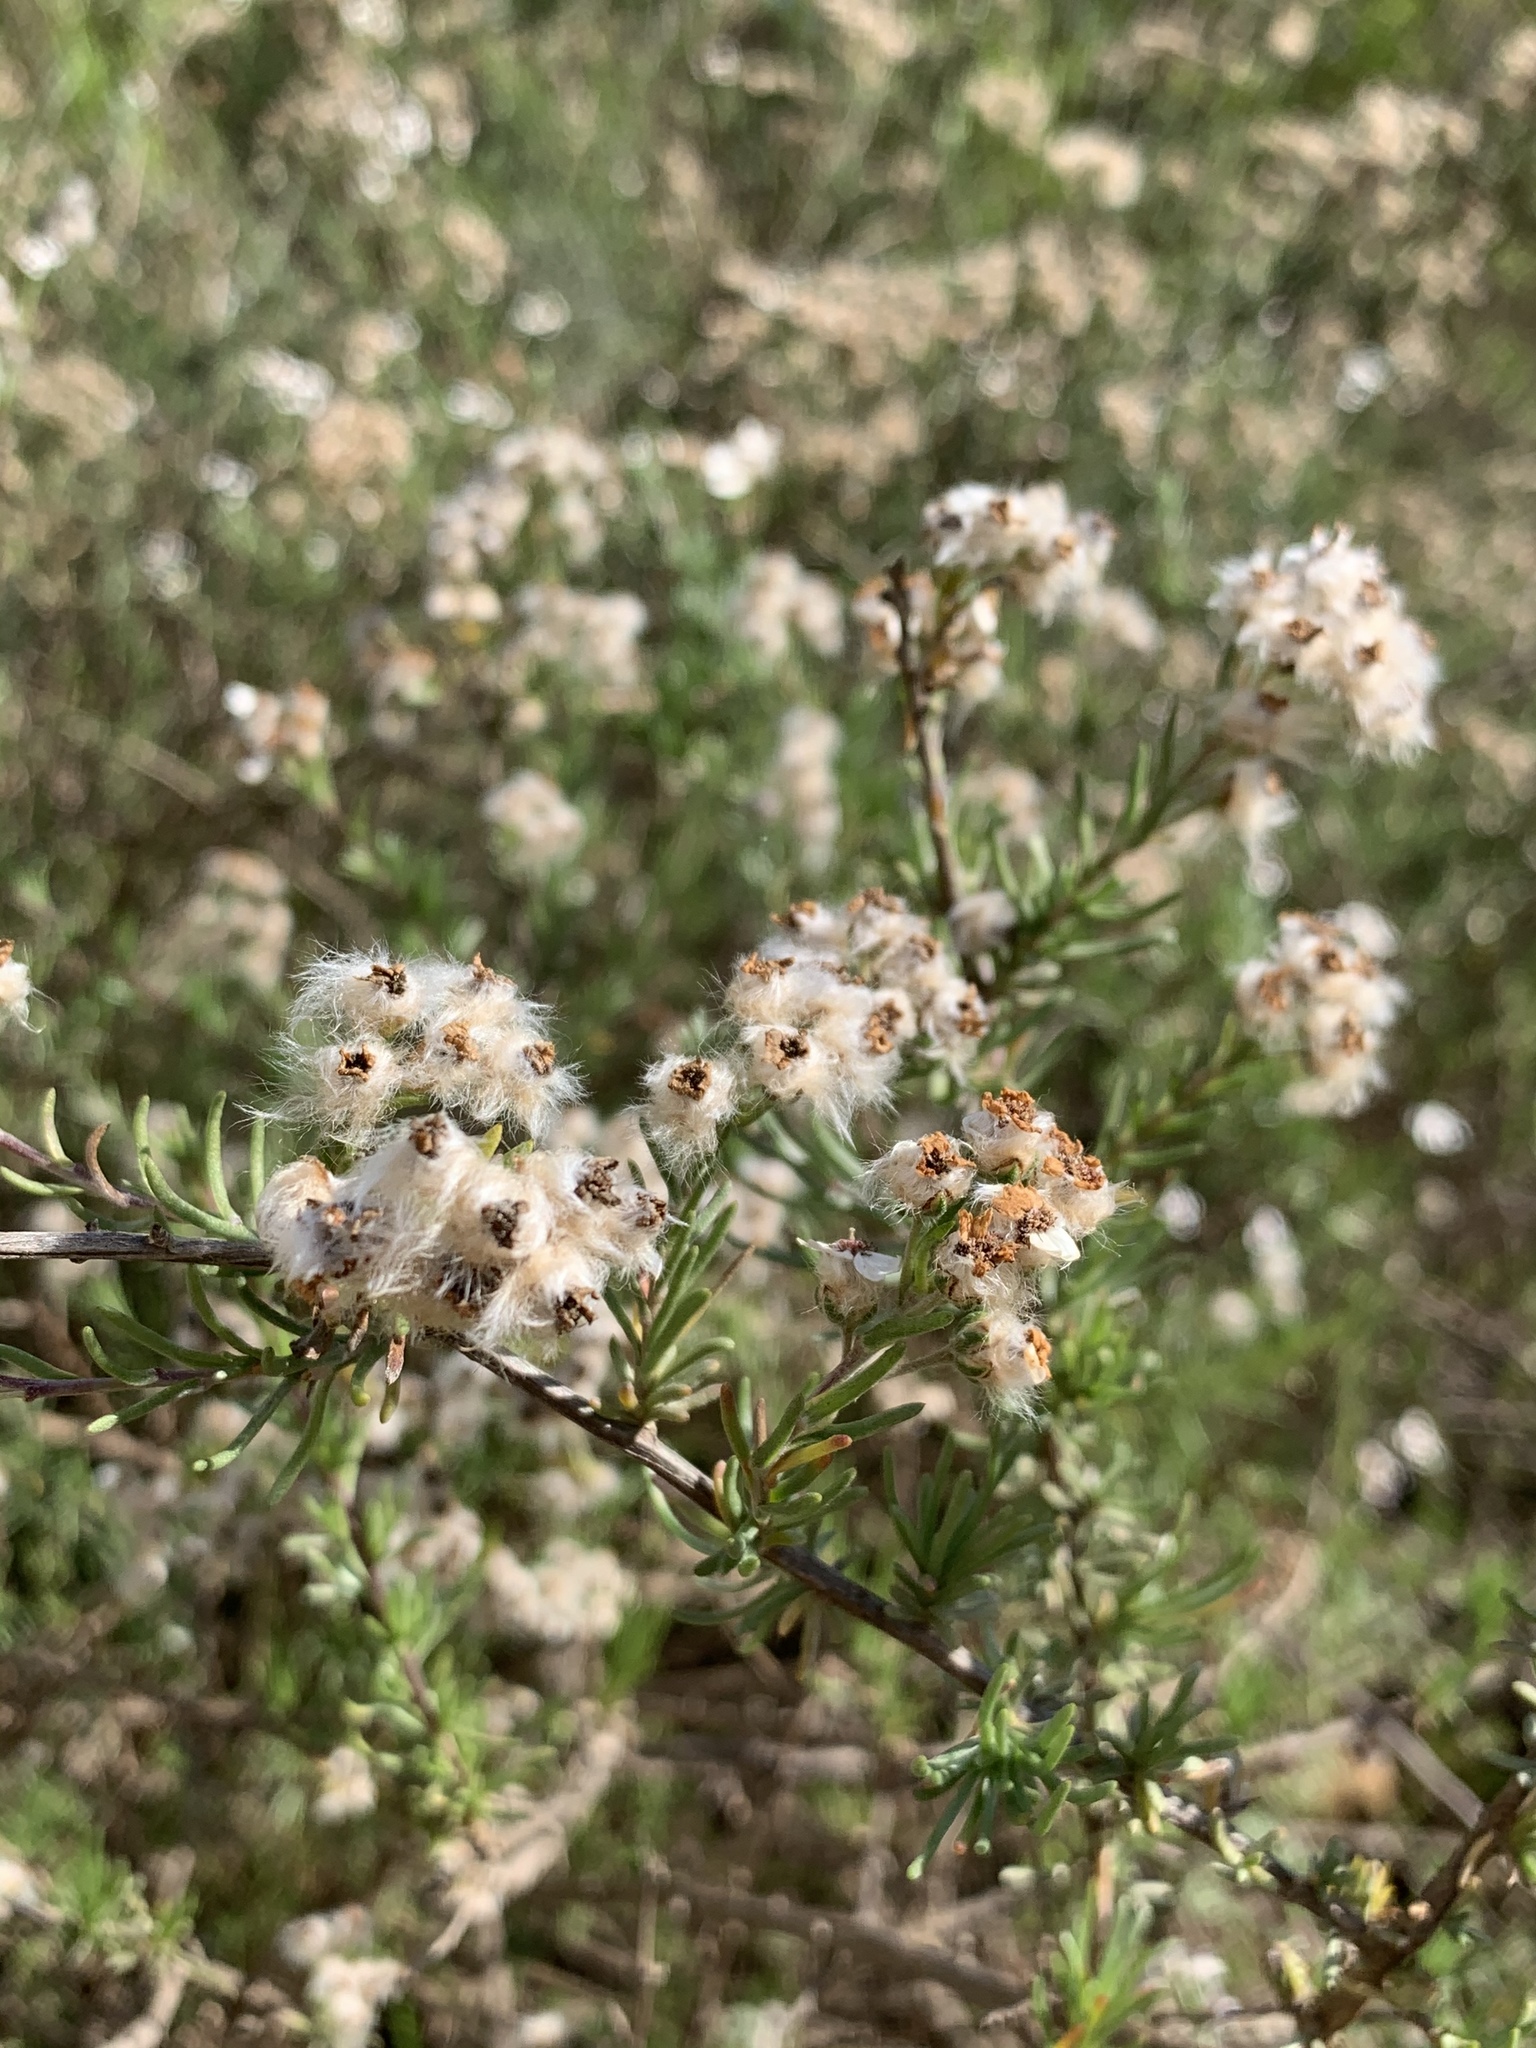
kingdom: Plantae
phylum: Tracheophyta
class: Magnoliopsida
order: Asterales
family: Asteraceae
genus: Eriocephalus
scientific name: Eriocephalus africanus
